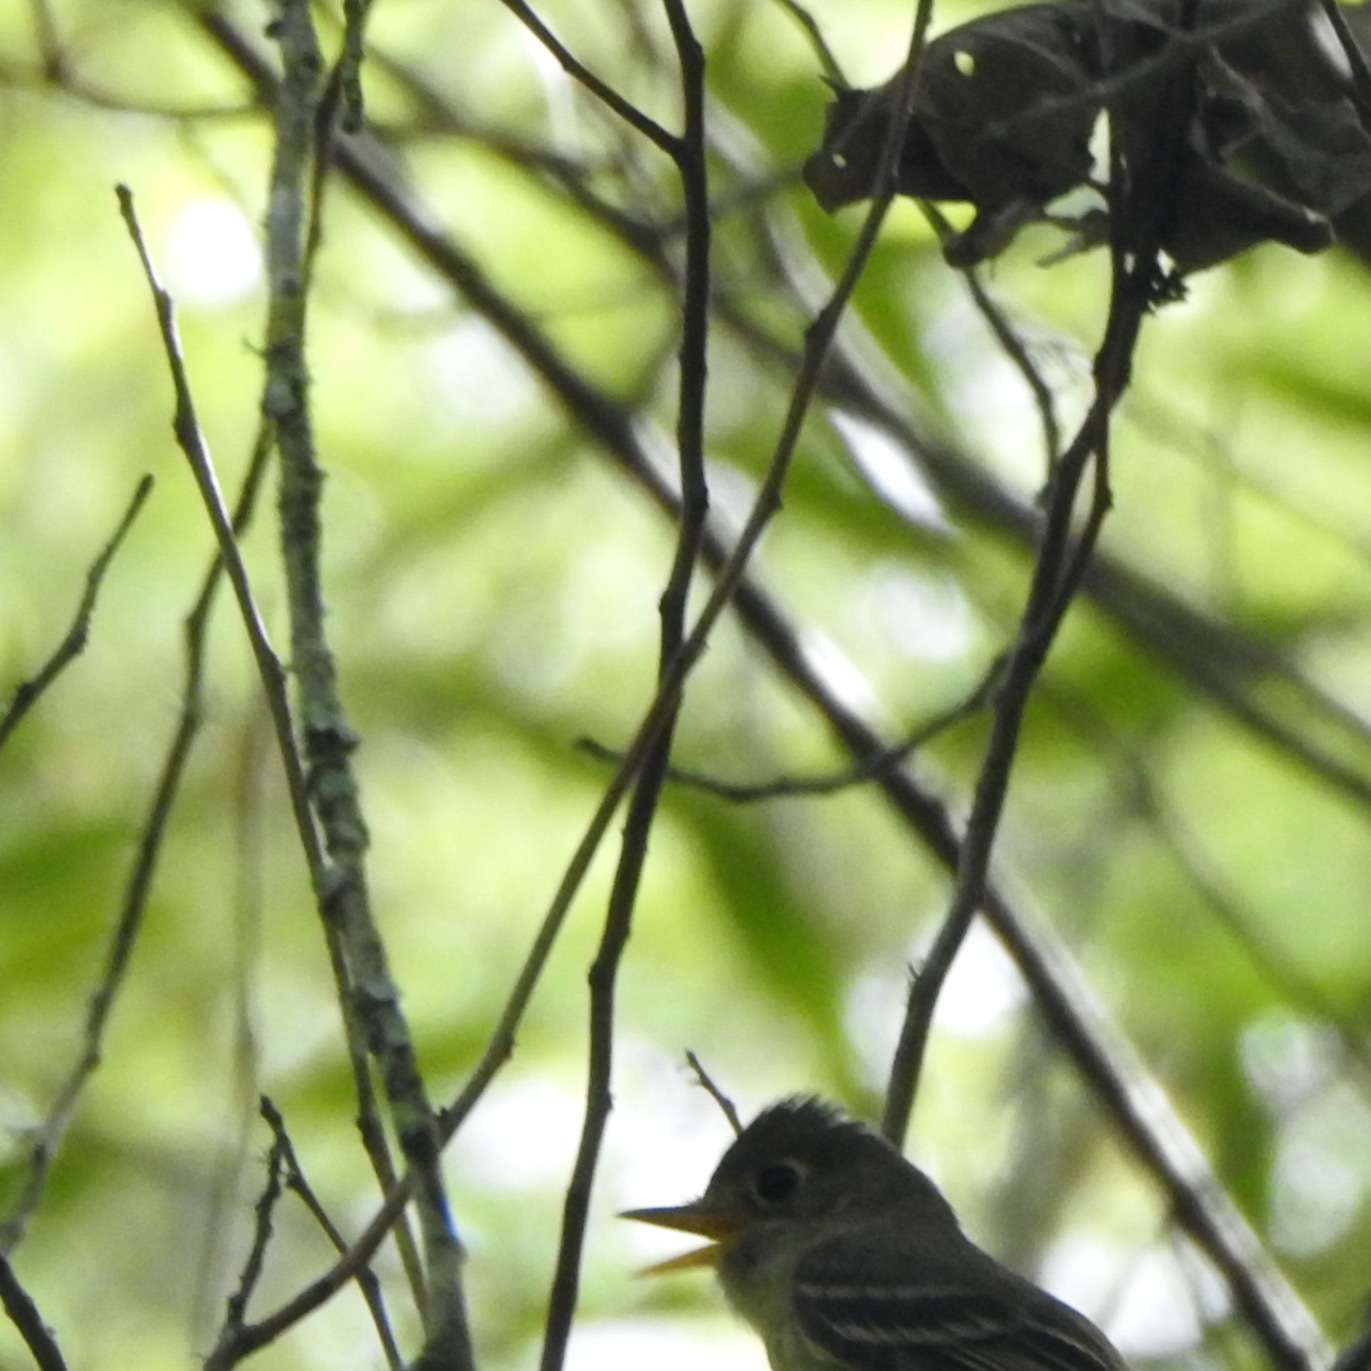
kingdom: Animalia
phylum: Chordata
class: Aves
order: Passeriformes
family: Tyrannidae
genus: Empidonax
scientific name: Empidonax difficilis
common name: Pacific-slope flycatcher
